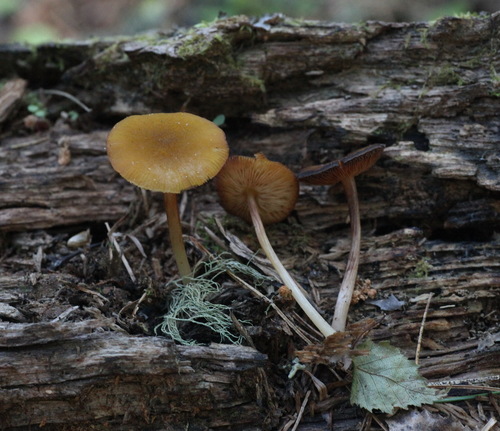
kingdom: Fungi
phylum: Basidiomycota
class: Agaricomycetes
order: Agaricales
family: Pluteaceae
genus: Pluteus
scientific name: Pluteus chrysophaeus
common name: Yellow shield
